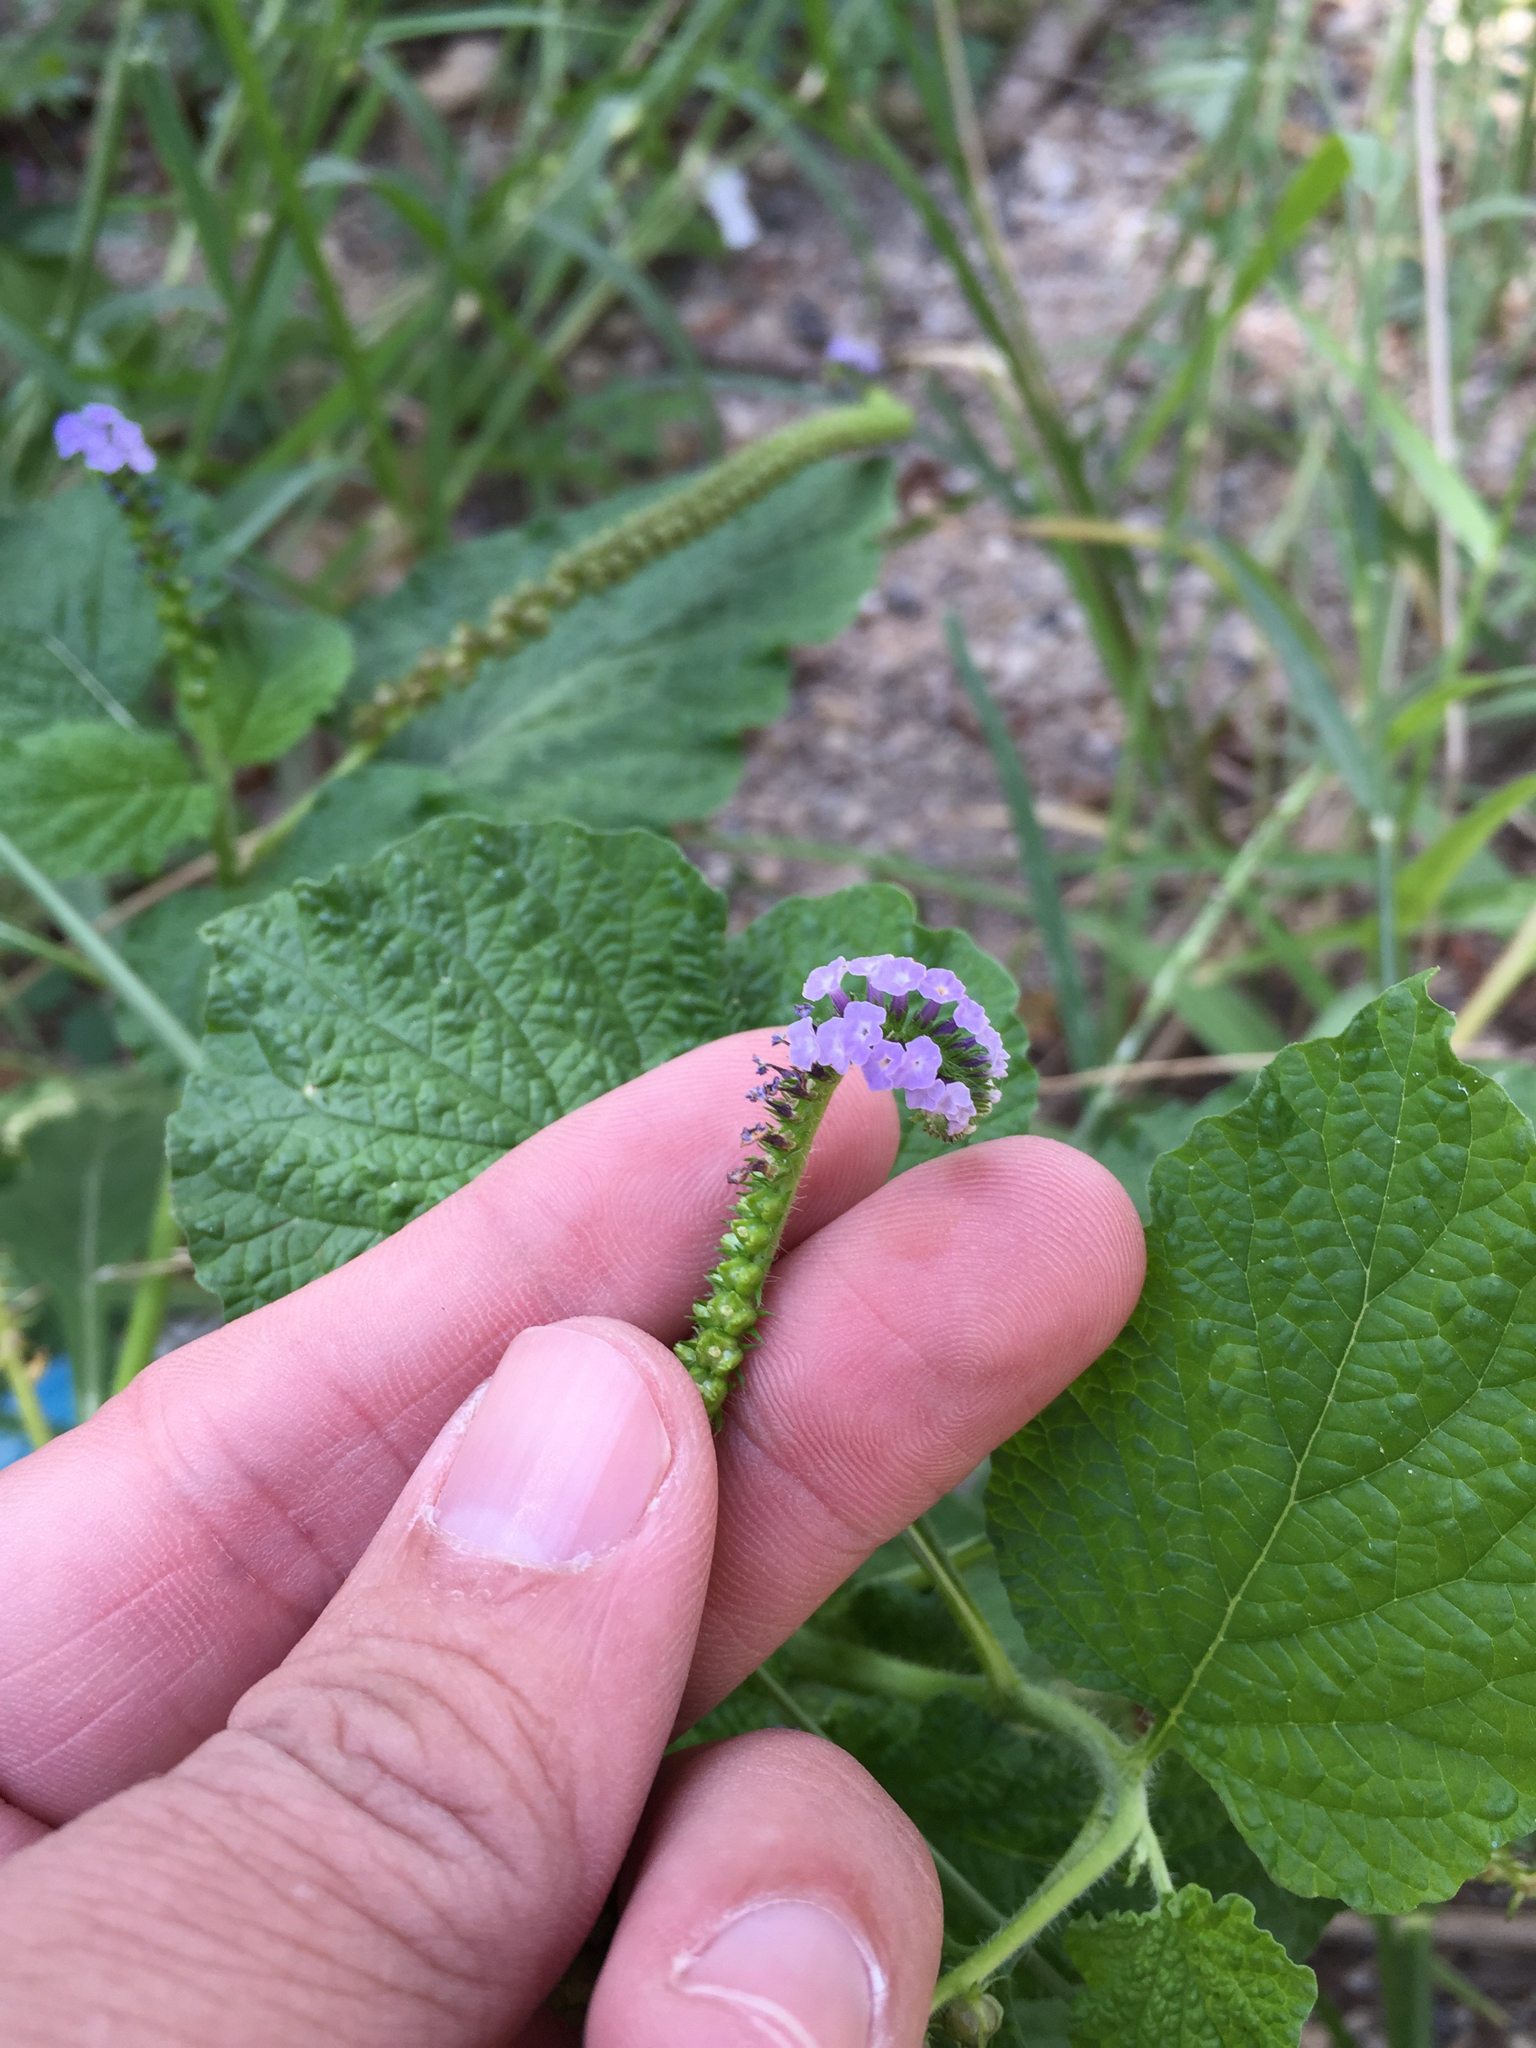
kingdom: Plantae
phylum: Tracheophyta
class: Magnoliopsida
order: Boraginales
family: Heliotropiaceae
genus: Heliotropium
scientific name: Heliotropium indicum
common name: Indian heliotrope
